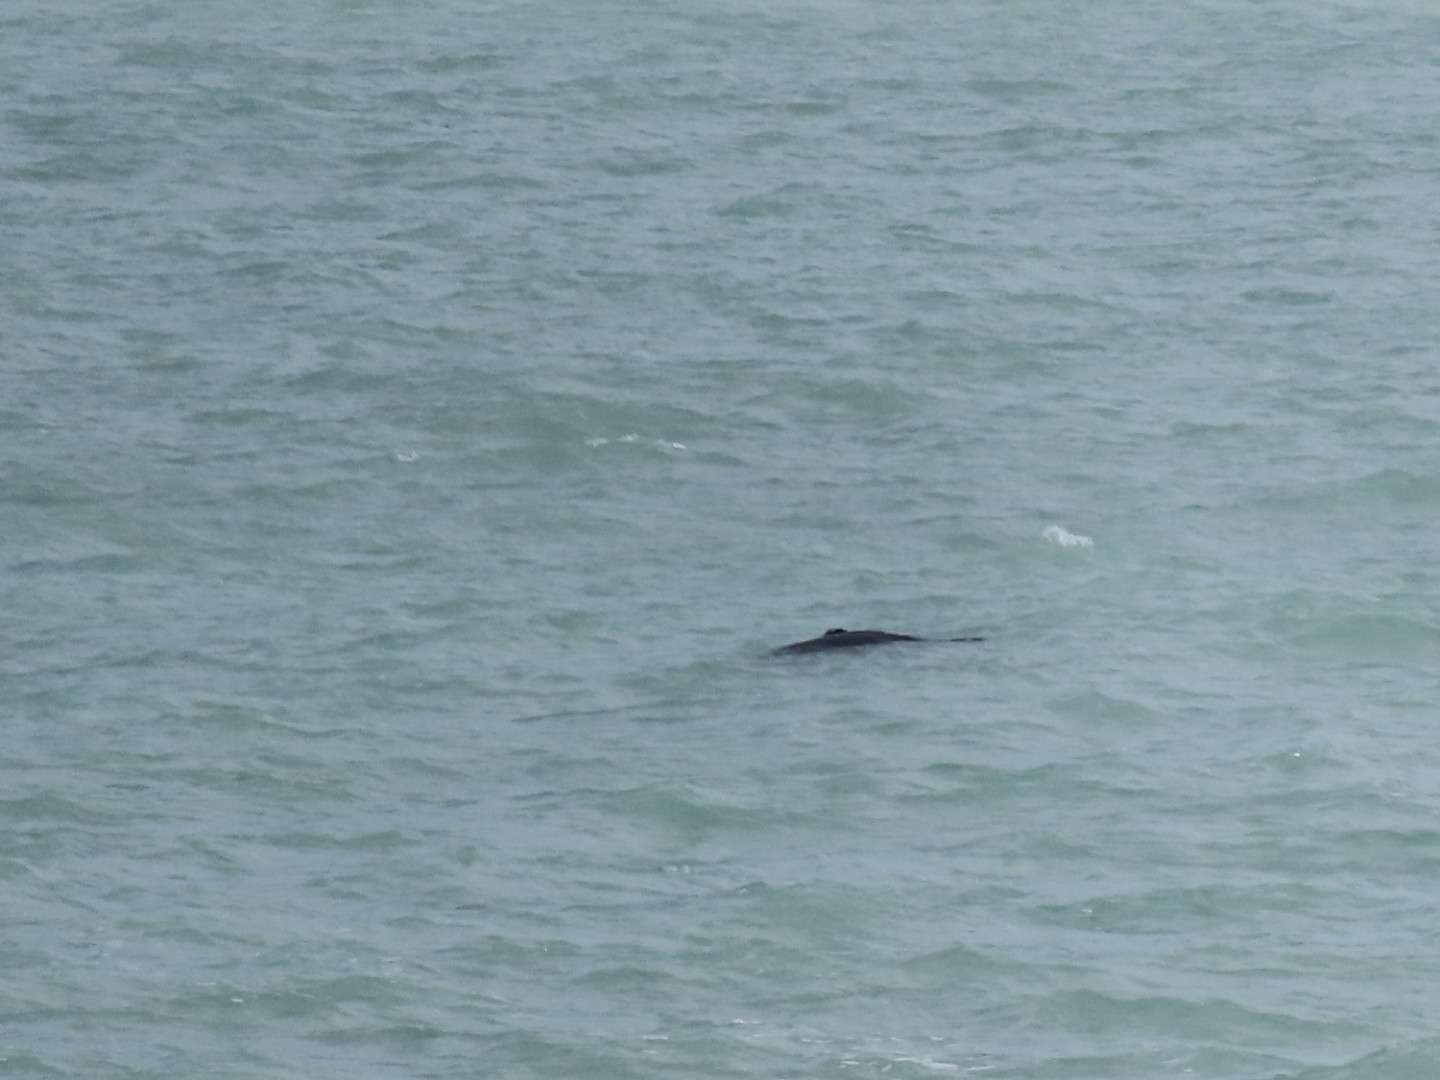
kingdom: Animalia
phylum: Chordata
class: Mammalia
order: Carnivora
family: Otariidae
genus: Arctocephalus
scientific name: Arctocephalus forsteri
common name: New zealand fur seal
